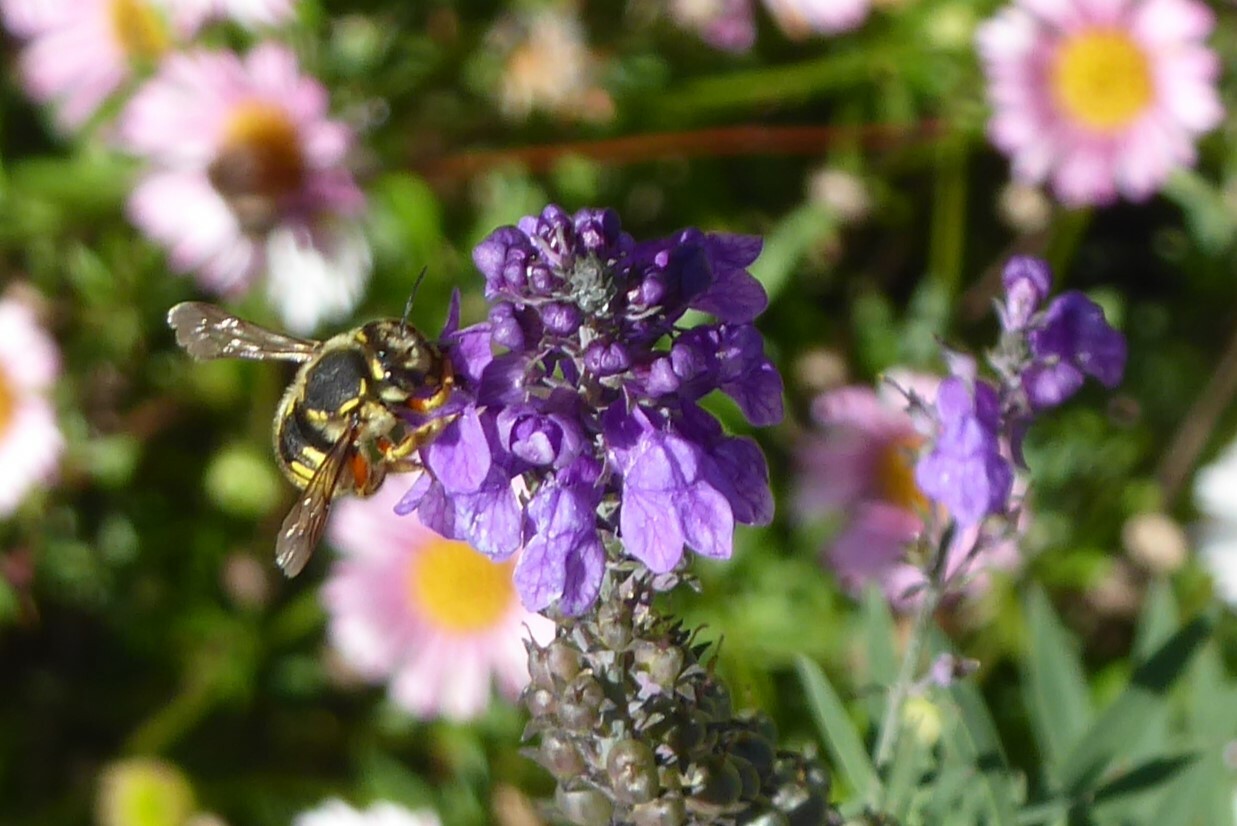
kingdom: Animalia
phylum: Arthropoda
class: Insecta
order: Hymenoptera
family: Megachilidae
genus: Anthidium
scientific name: Anthidium manicatum
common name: Wool carder bee
